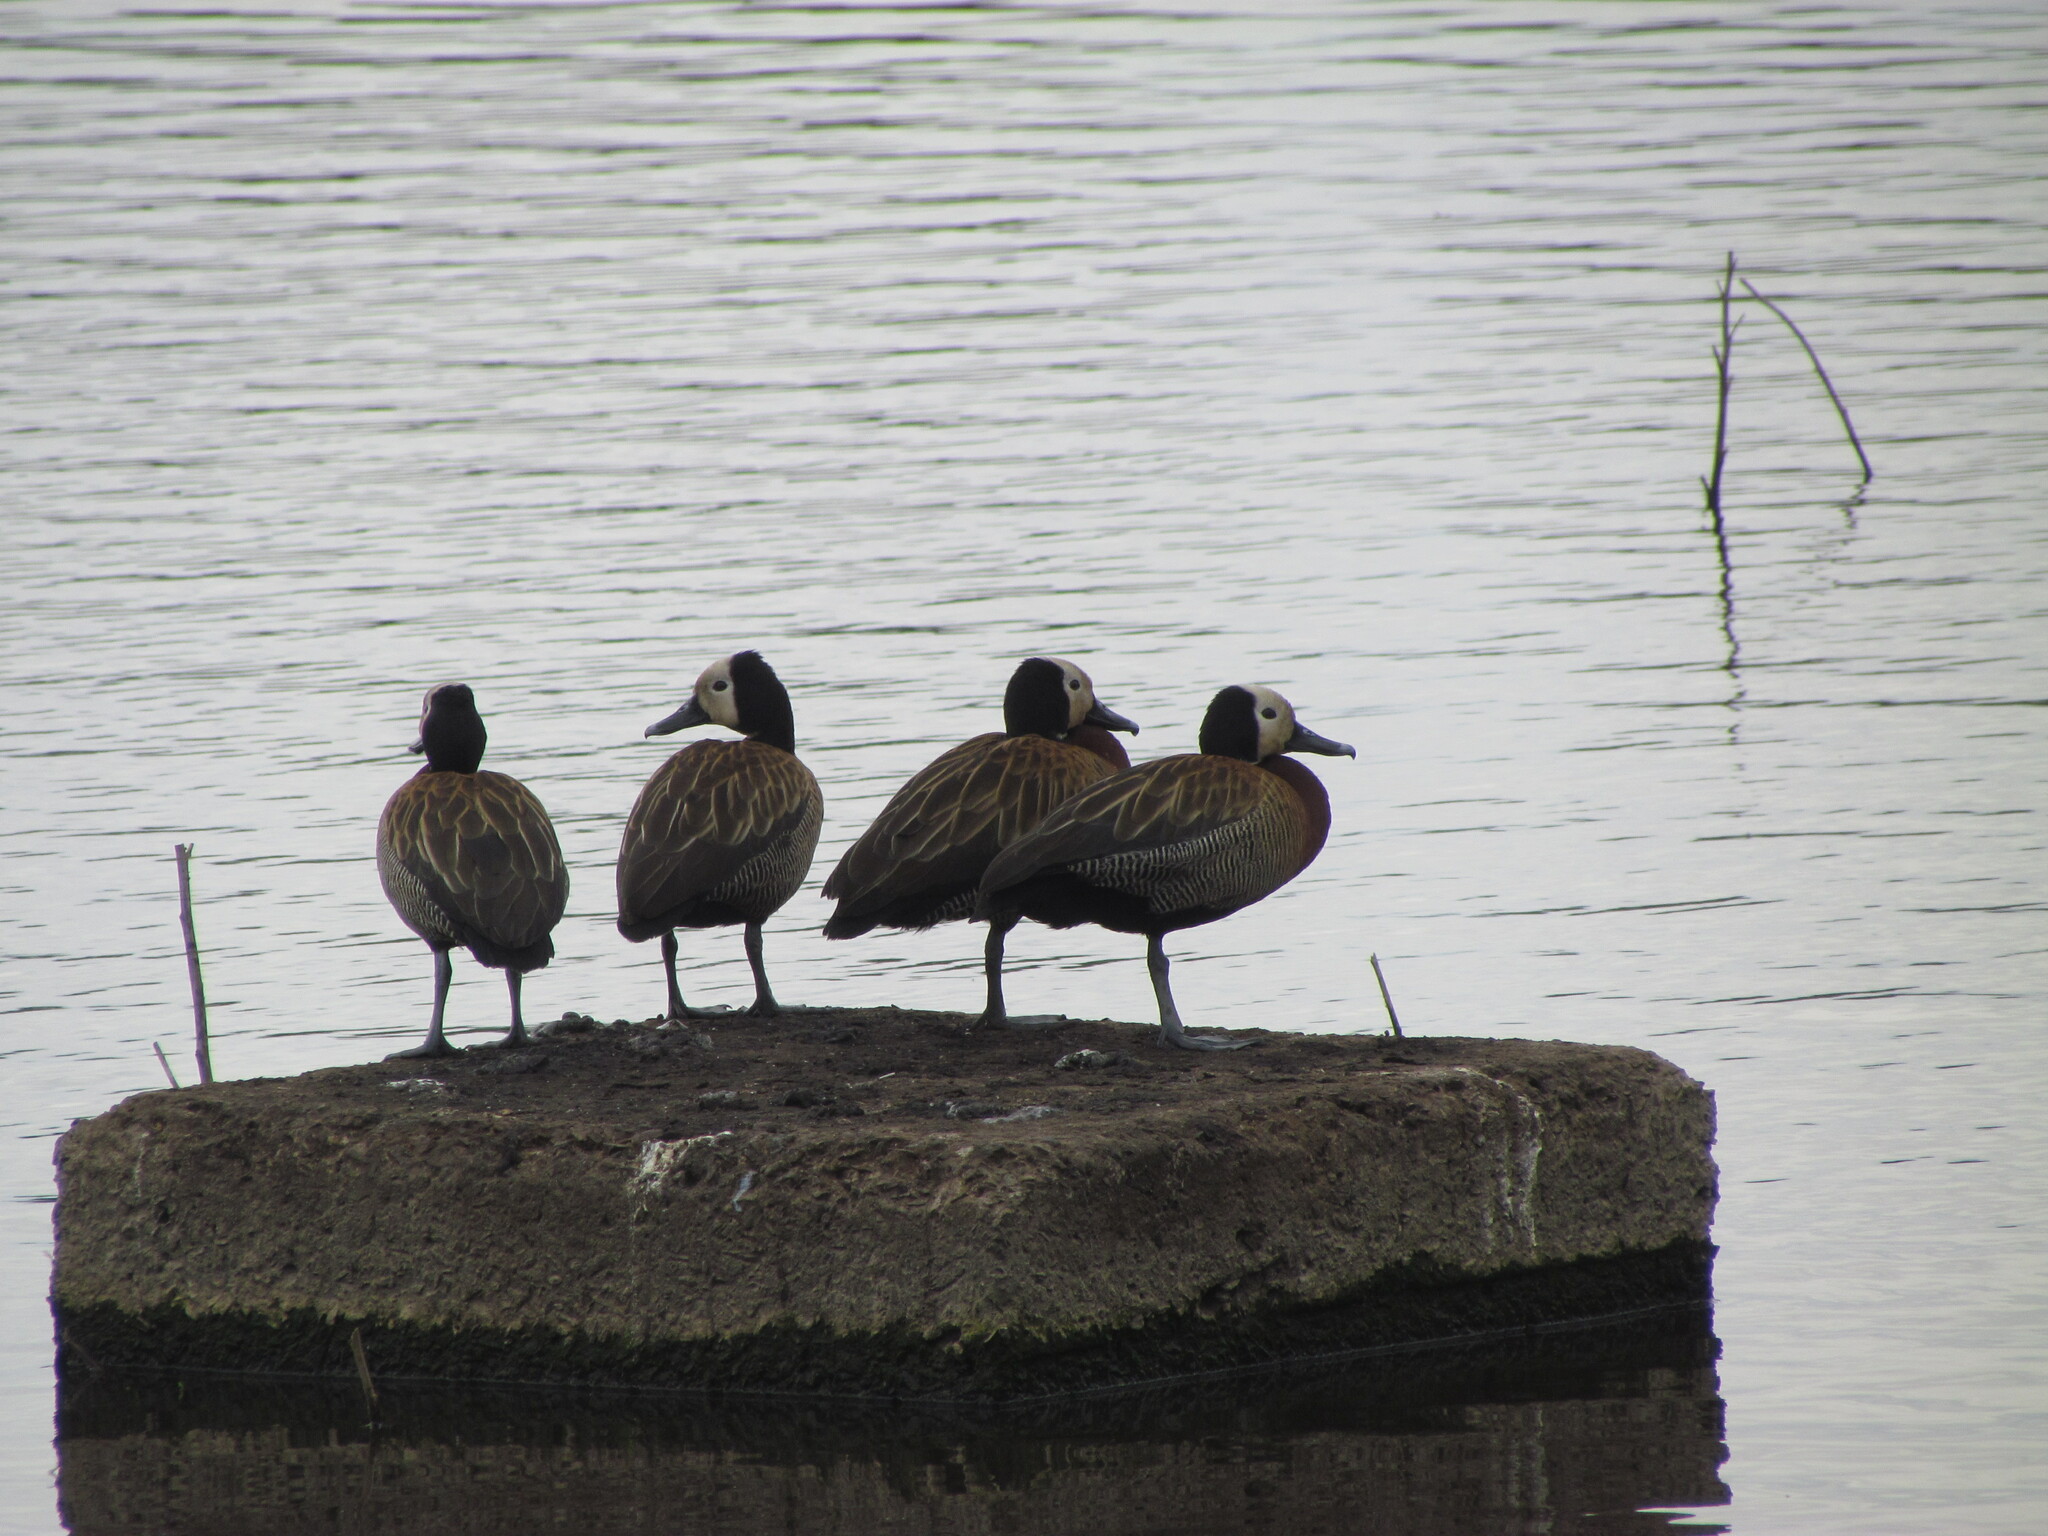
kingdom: Animalia
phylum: Chordata
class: Aves
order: Anseriformes
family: Anatidae
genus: Dendrocygna
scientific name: Dendrocygna viduata
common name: White-faced whistling duck
